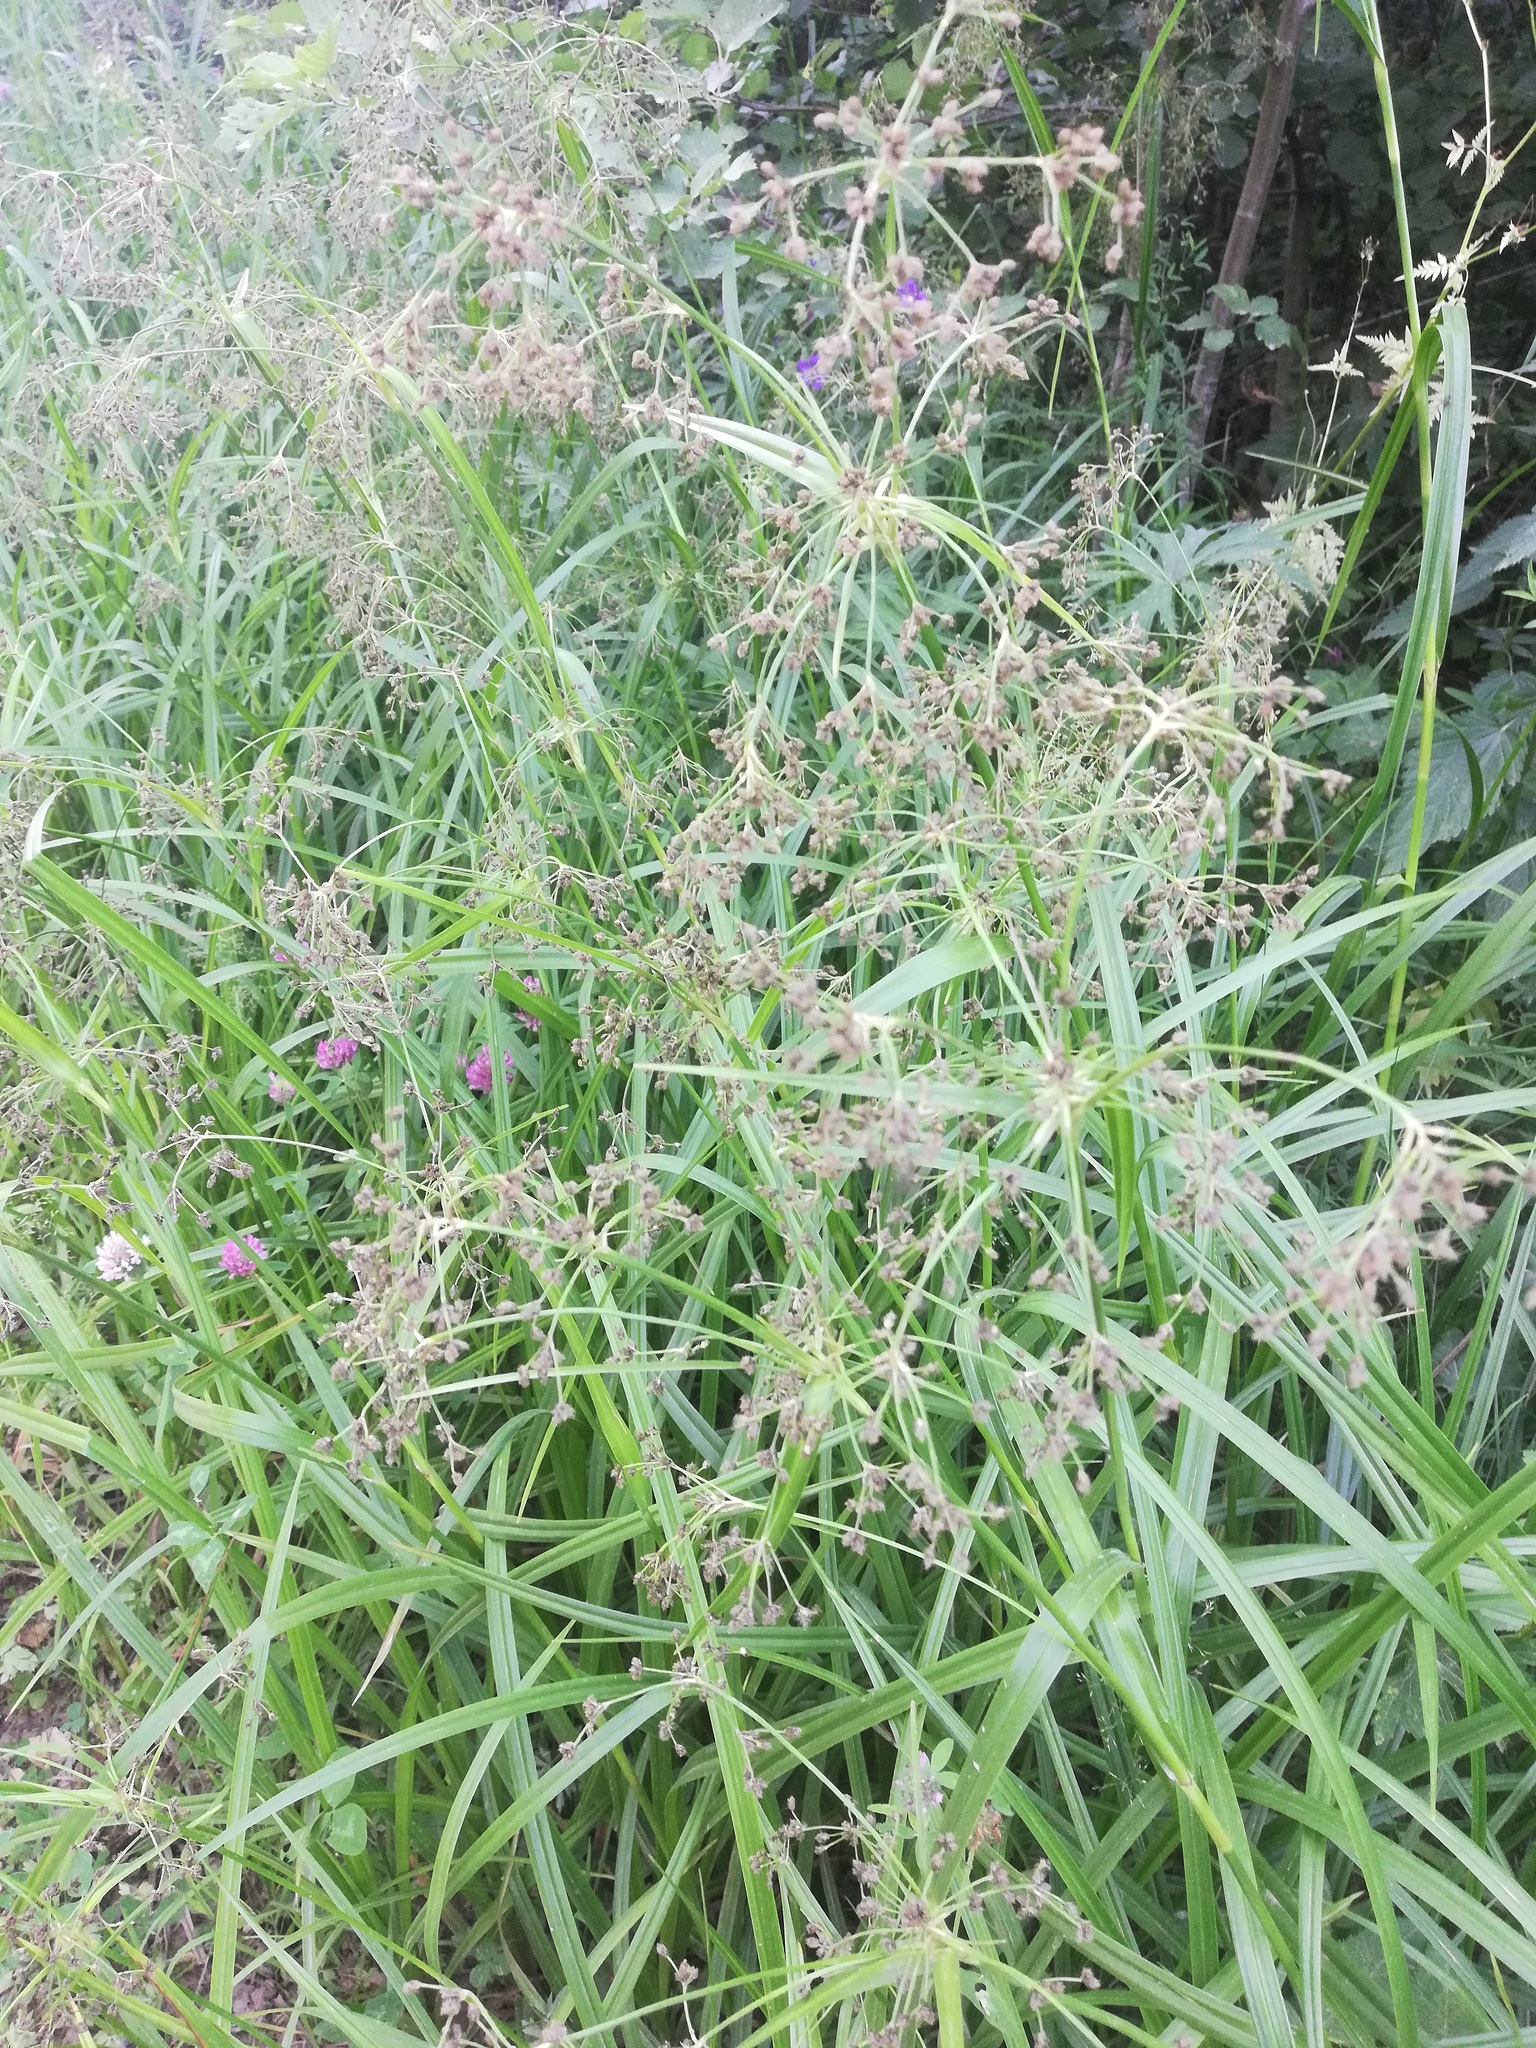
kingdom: Plantae
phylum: Tracheophyta
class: Liliopsida
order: Poales
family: Cyperaceae
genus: Scirpus
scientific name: Scirpus sylvaticus
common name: Wood club-rush
